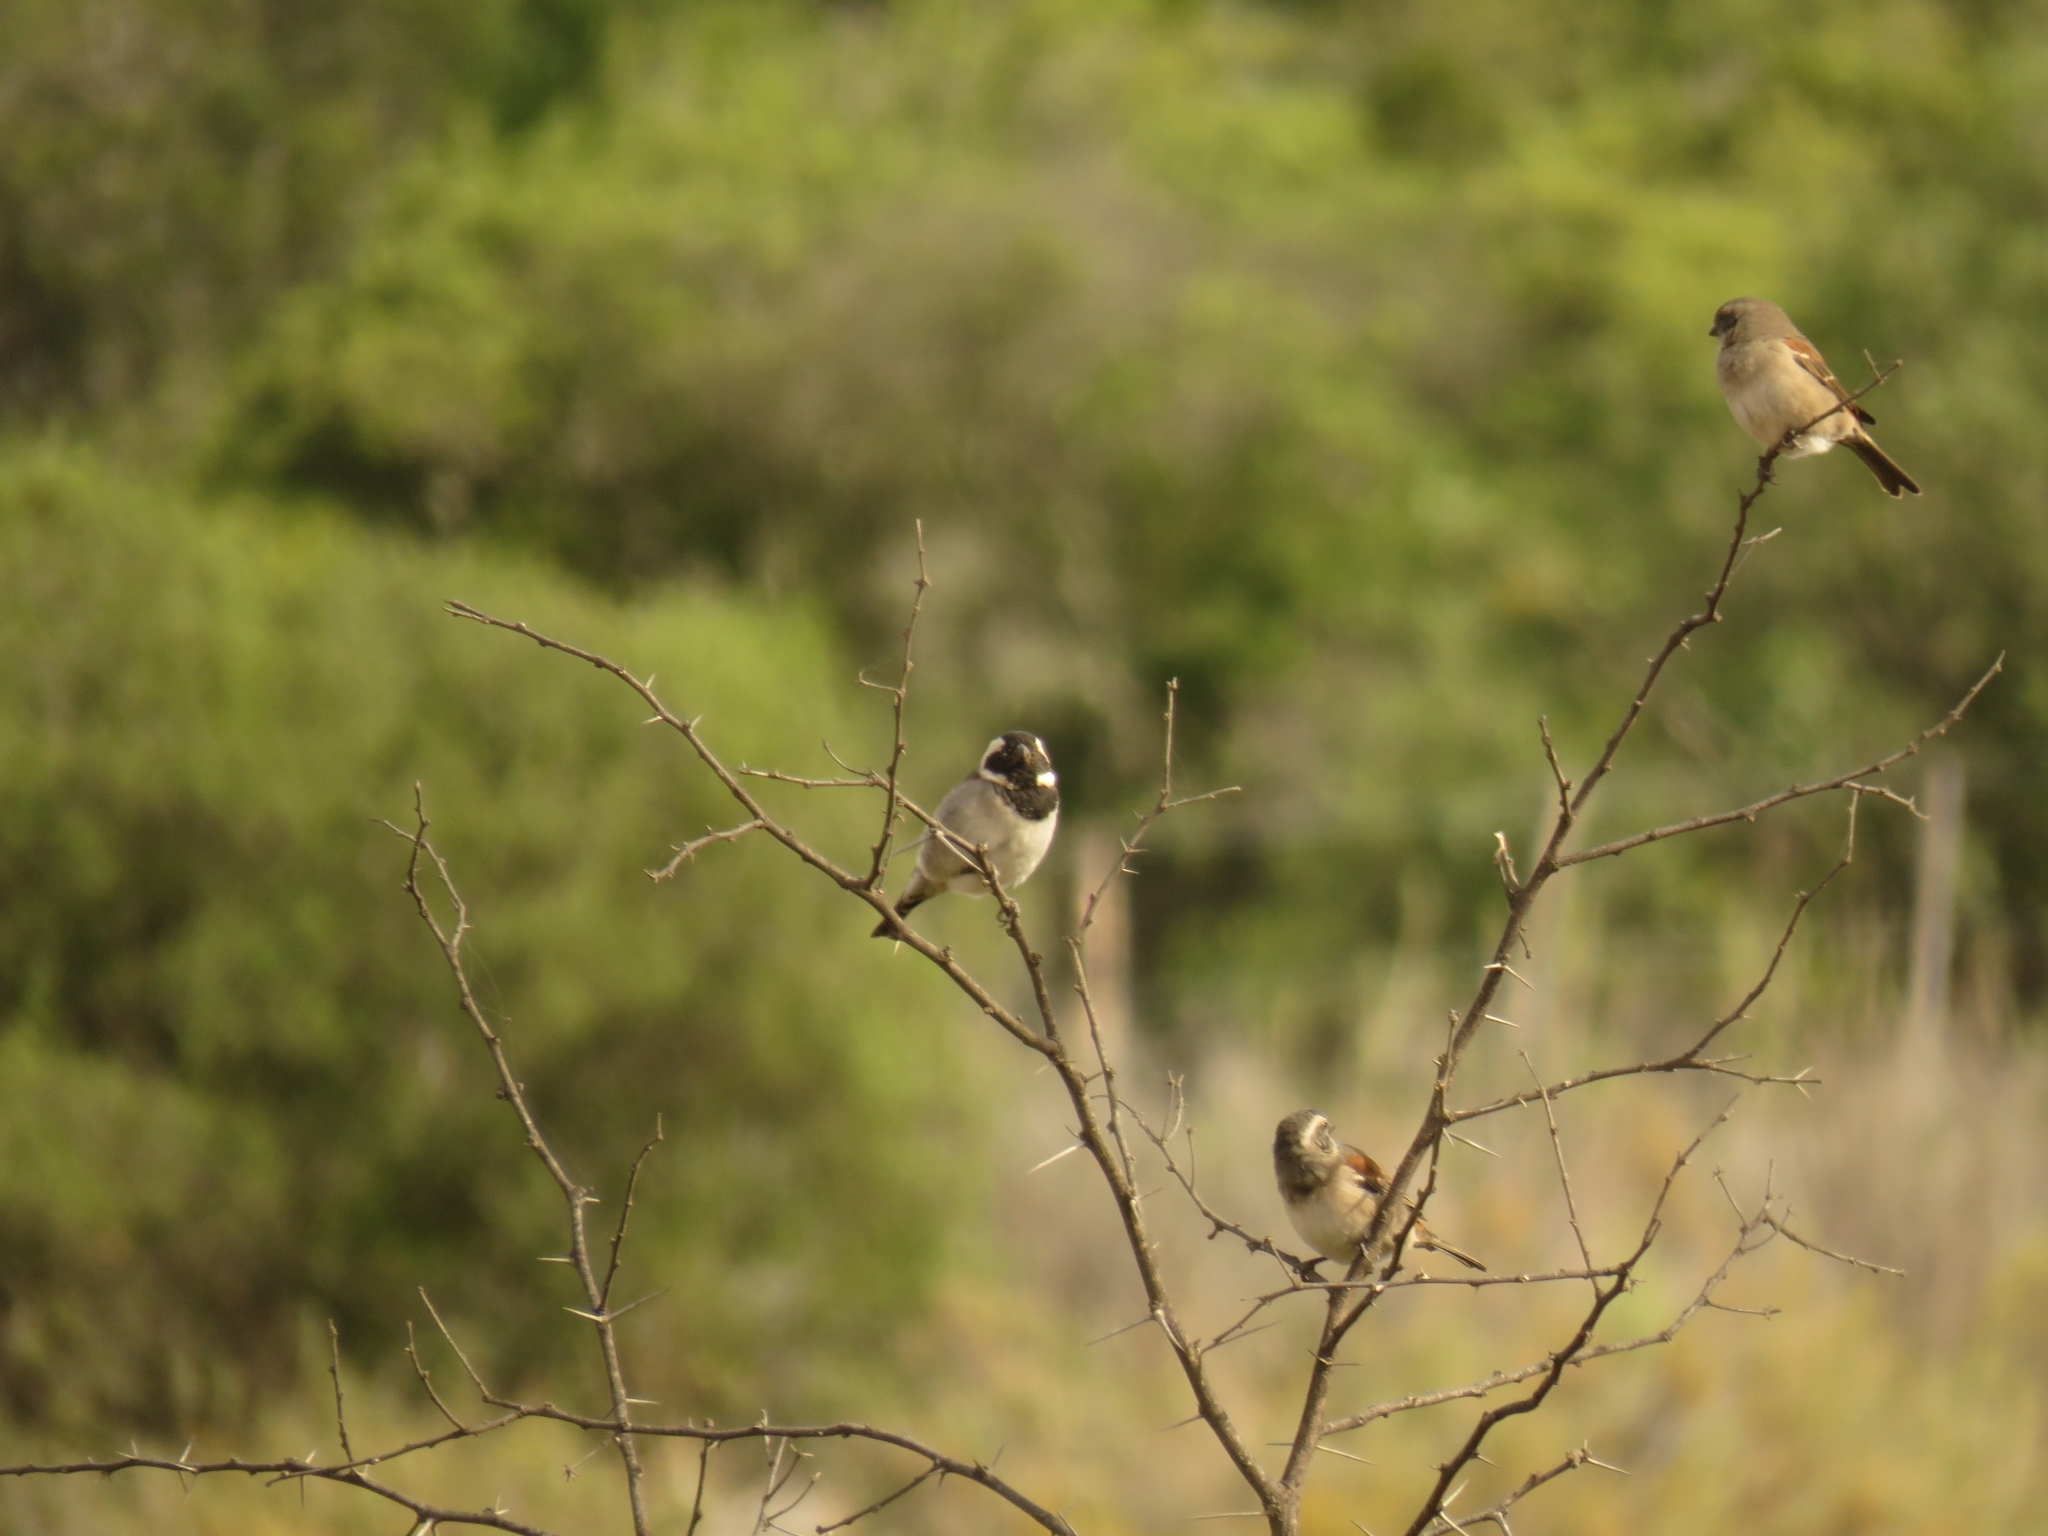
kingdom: Animalia
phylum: Chordata
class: Aves
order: Passeriformes
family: Passeridae
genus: Passer
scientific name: Passer melanurus
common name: Cape sparrow
